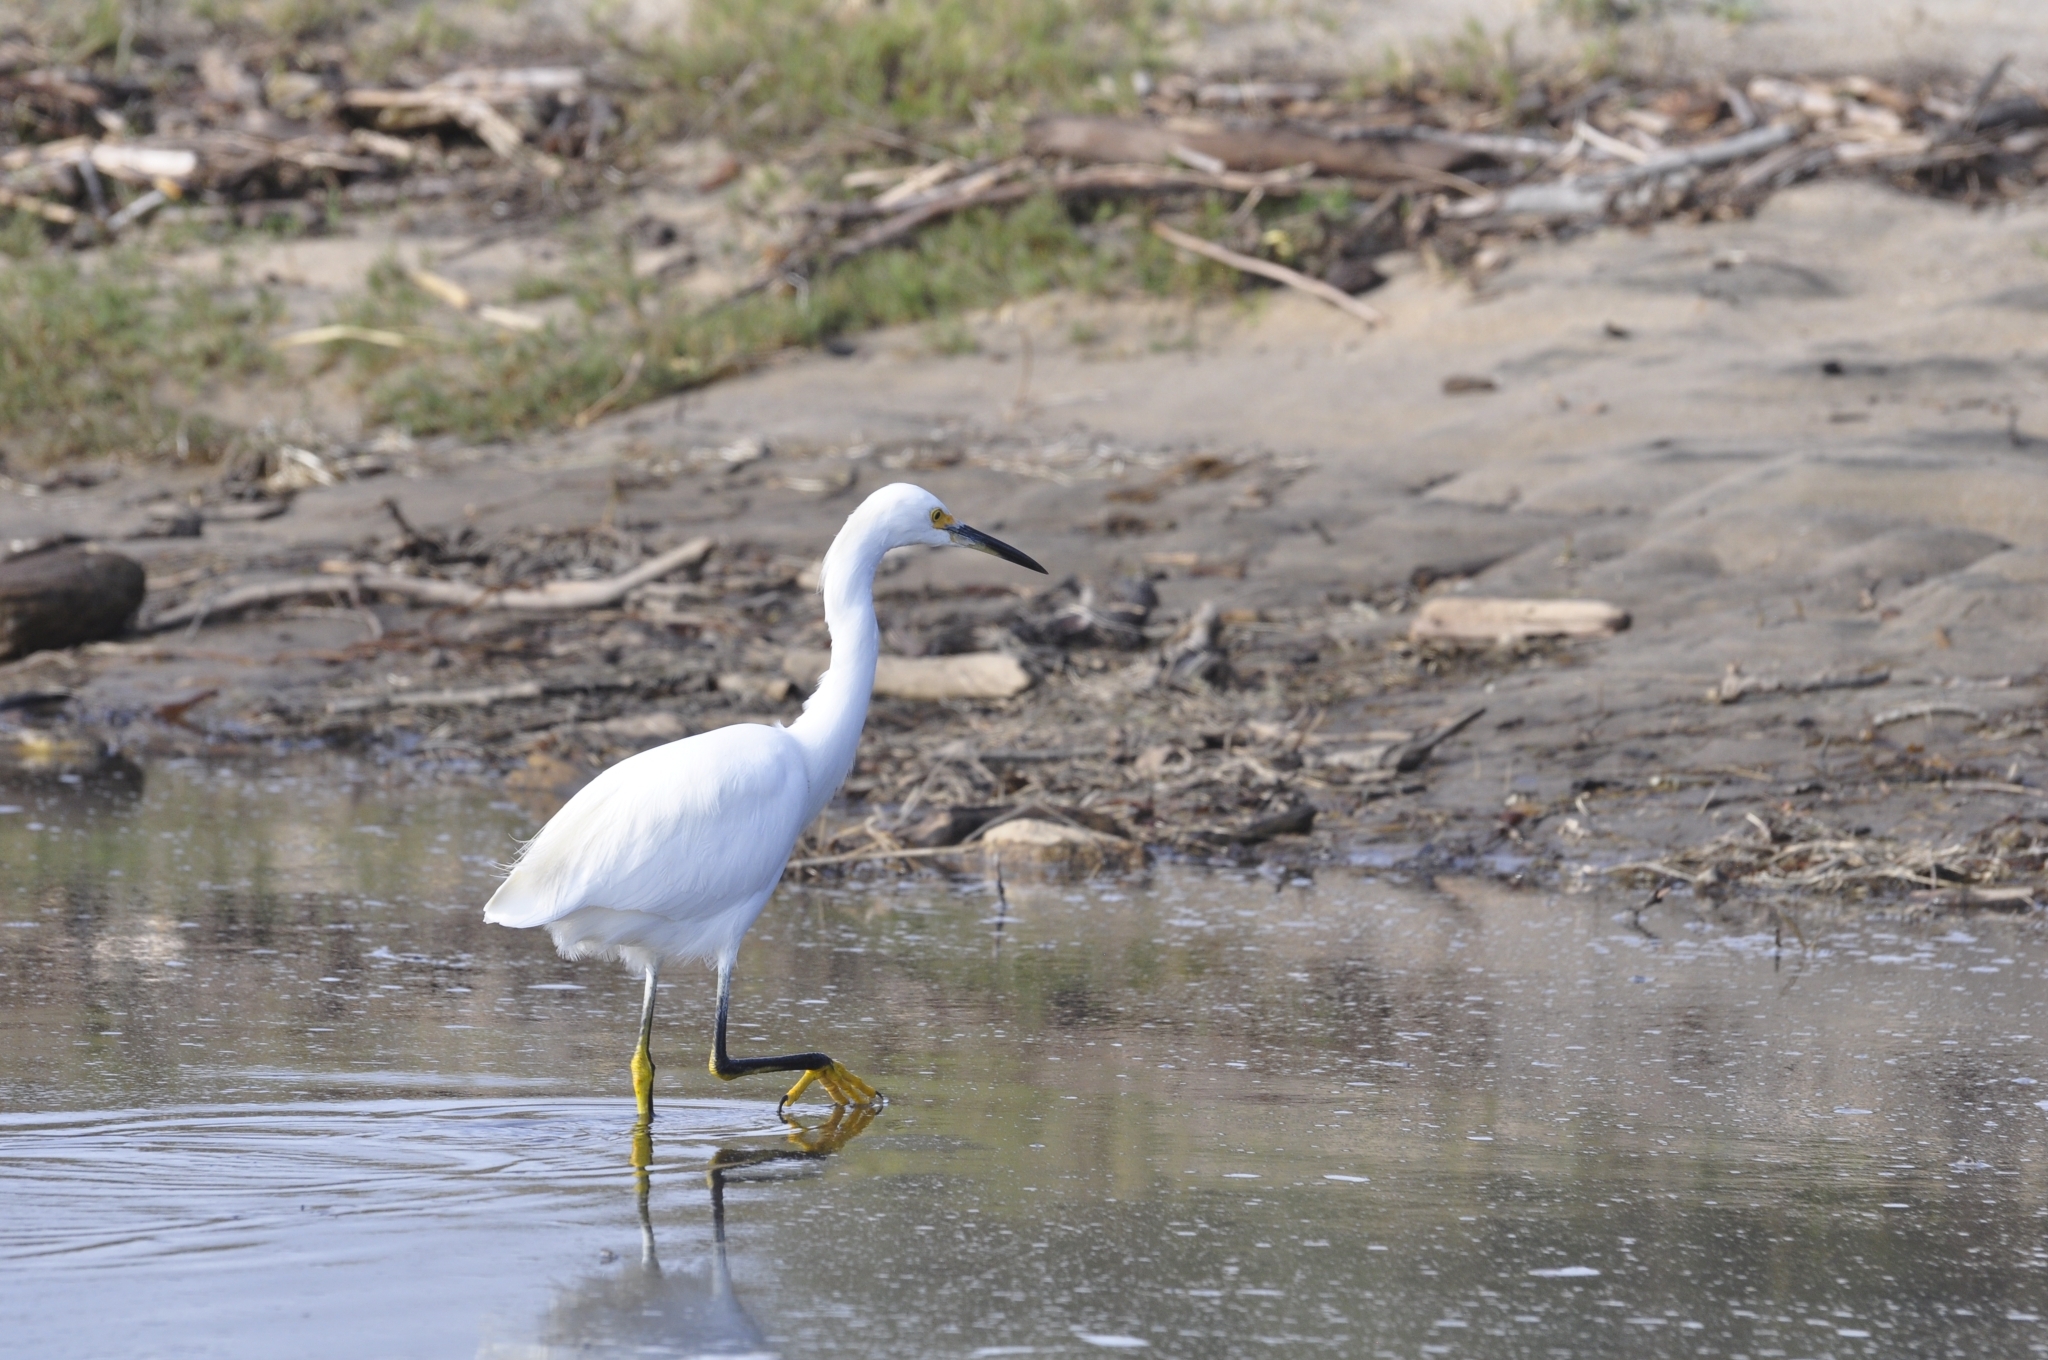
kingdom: Animalia
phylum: Chordata
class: Aves
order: Pelecaniformes
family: Ardeidae
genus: Egretta
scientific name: Egretta thula
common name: Snowy egret
